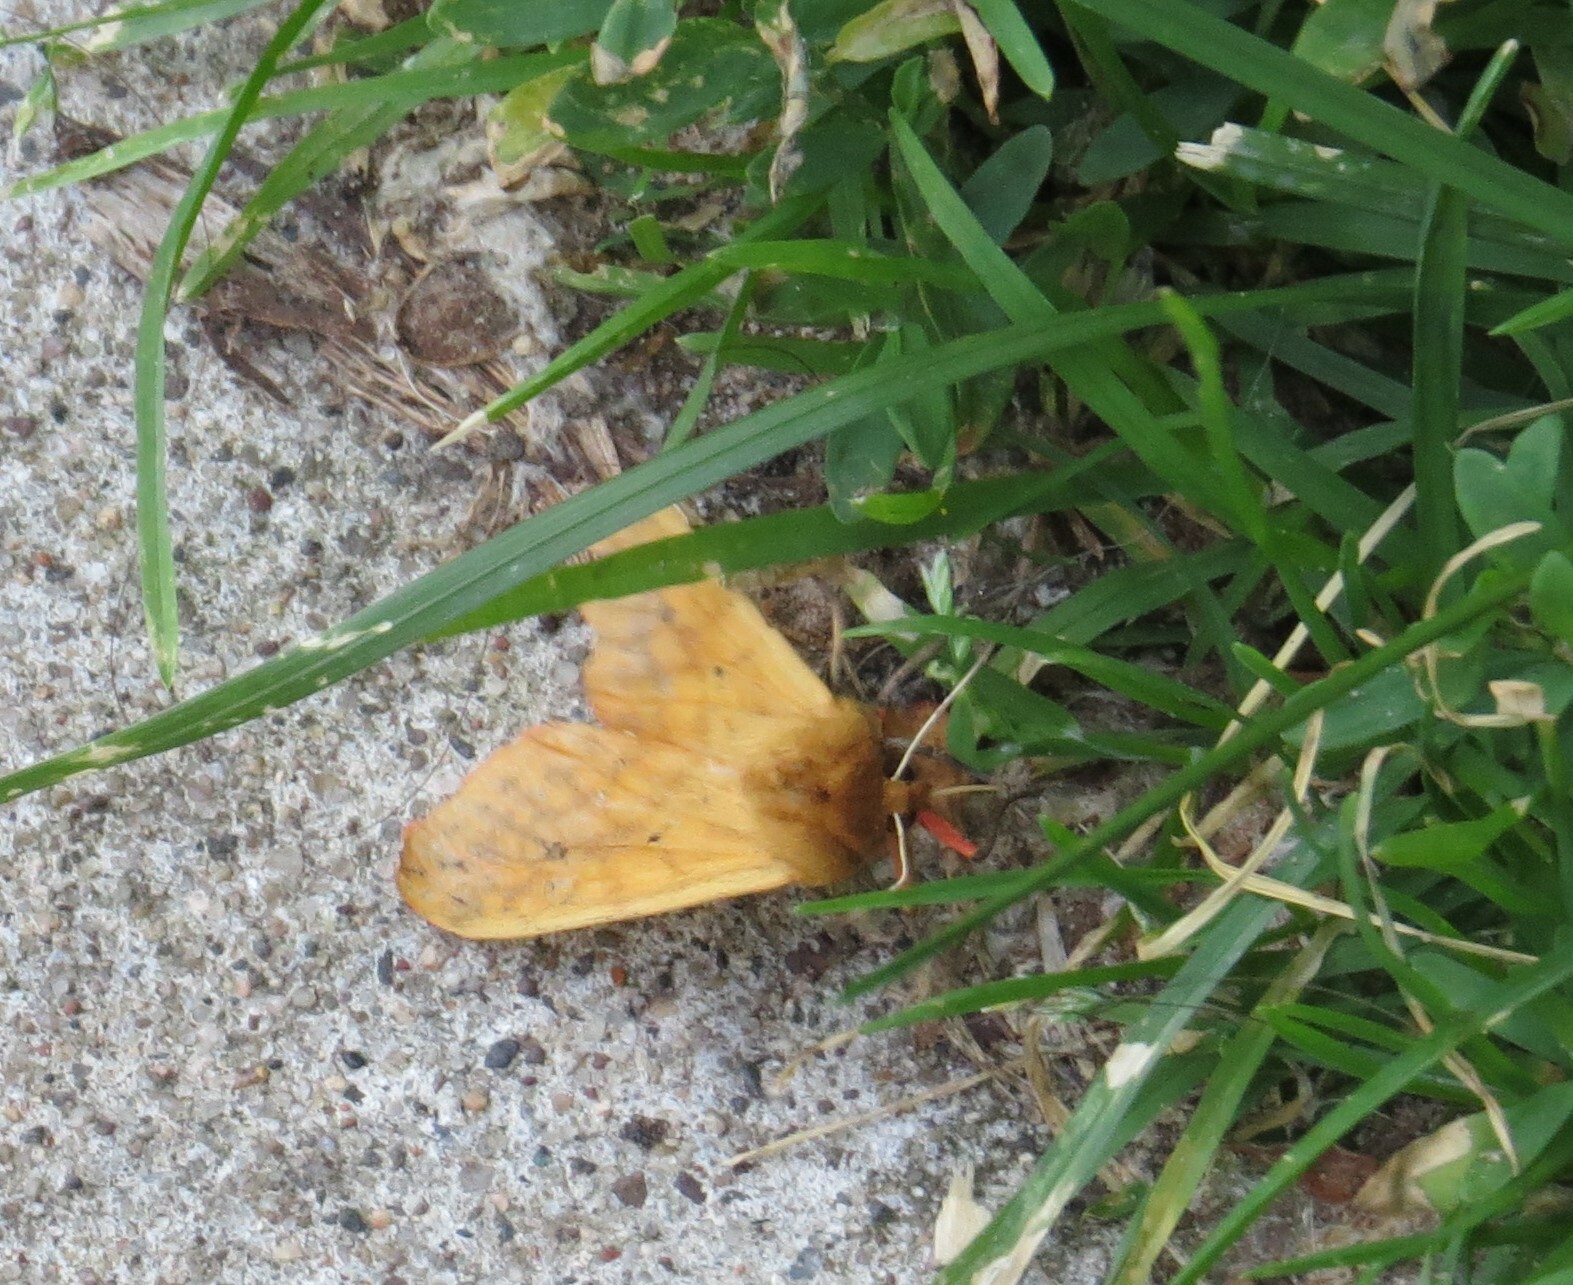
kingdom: Animalia
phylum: Arthropoda
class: Insecta
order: Lepidoptera
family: Erebidae
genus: Pyrrharctia
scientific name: Pyrrharctia isabella
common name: Isabella tiger moth
